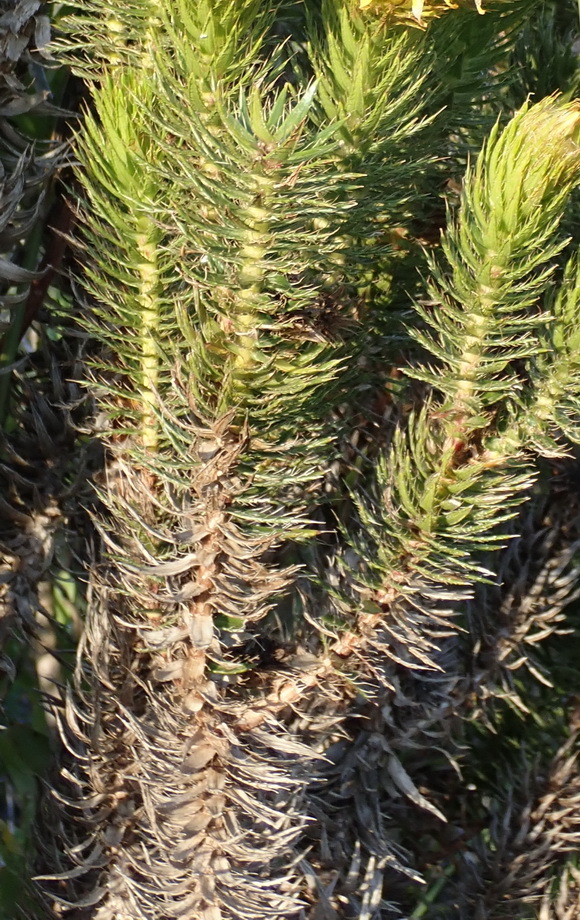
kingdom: Plantae
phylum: Tracheophyta
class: Magnoliopsida
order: Asterales
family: Asteraceae
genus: Cullumia
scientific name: Cullumia carlinoides
